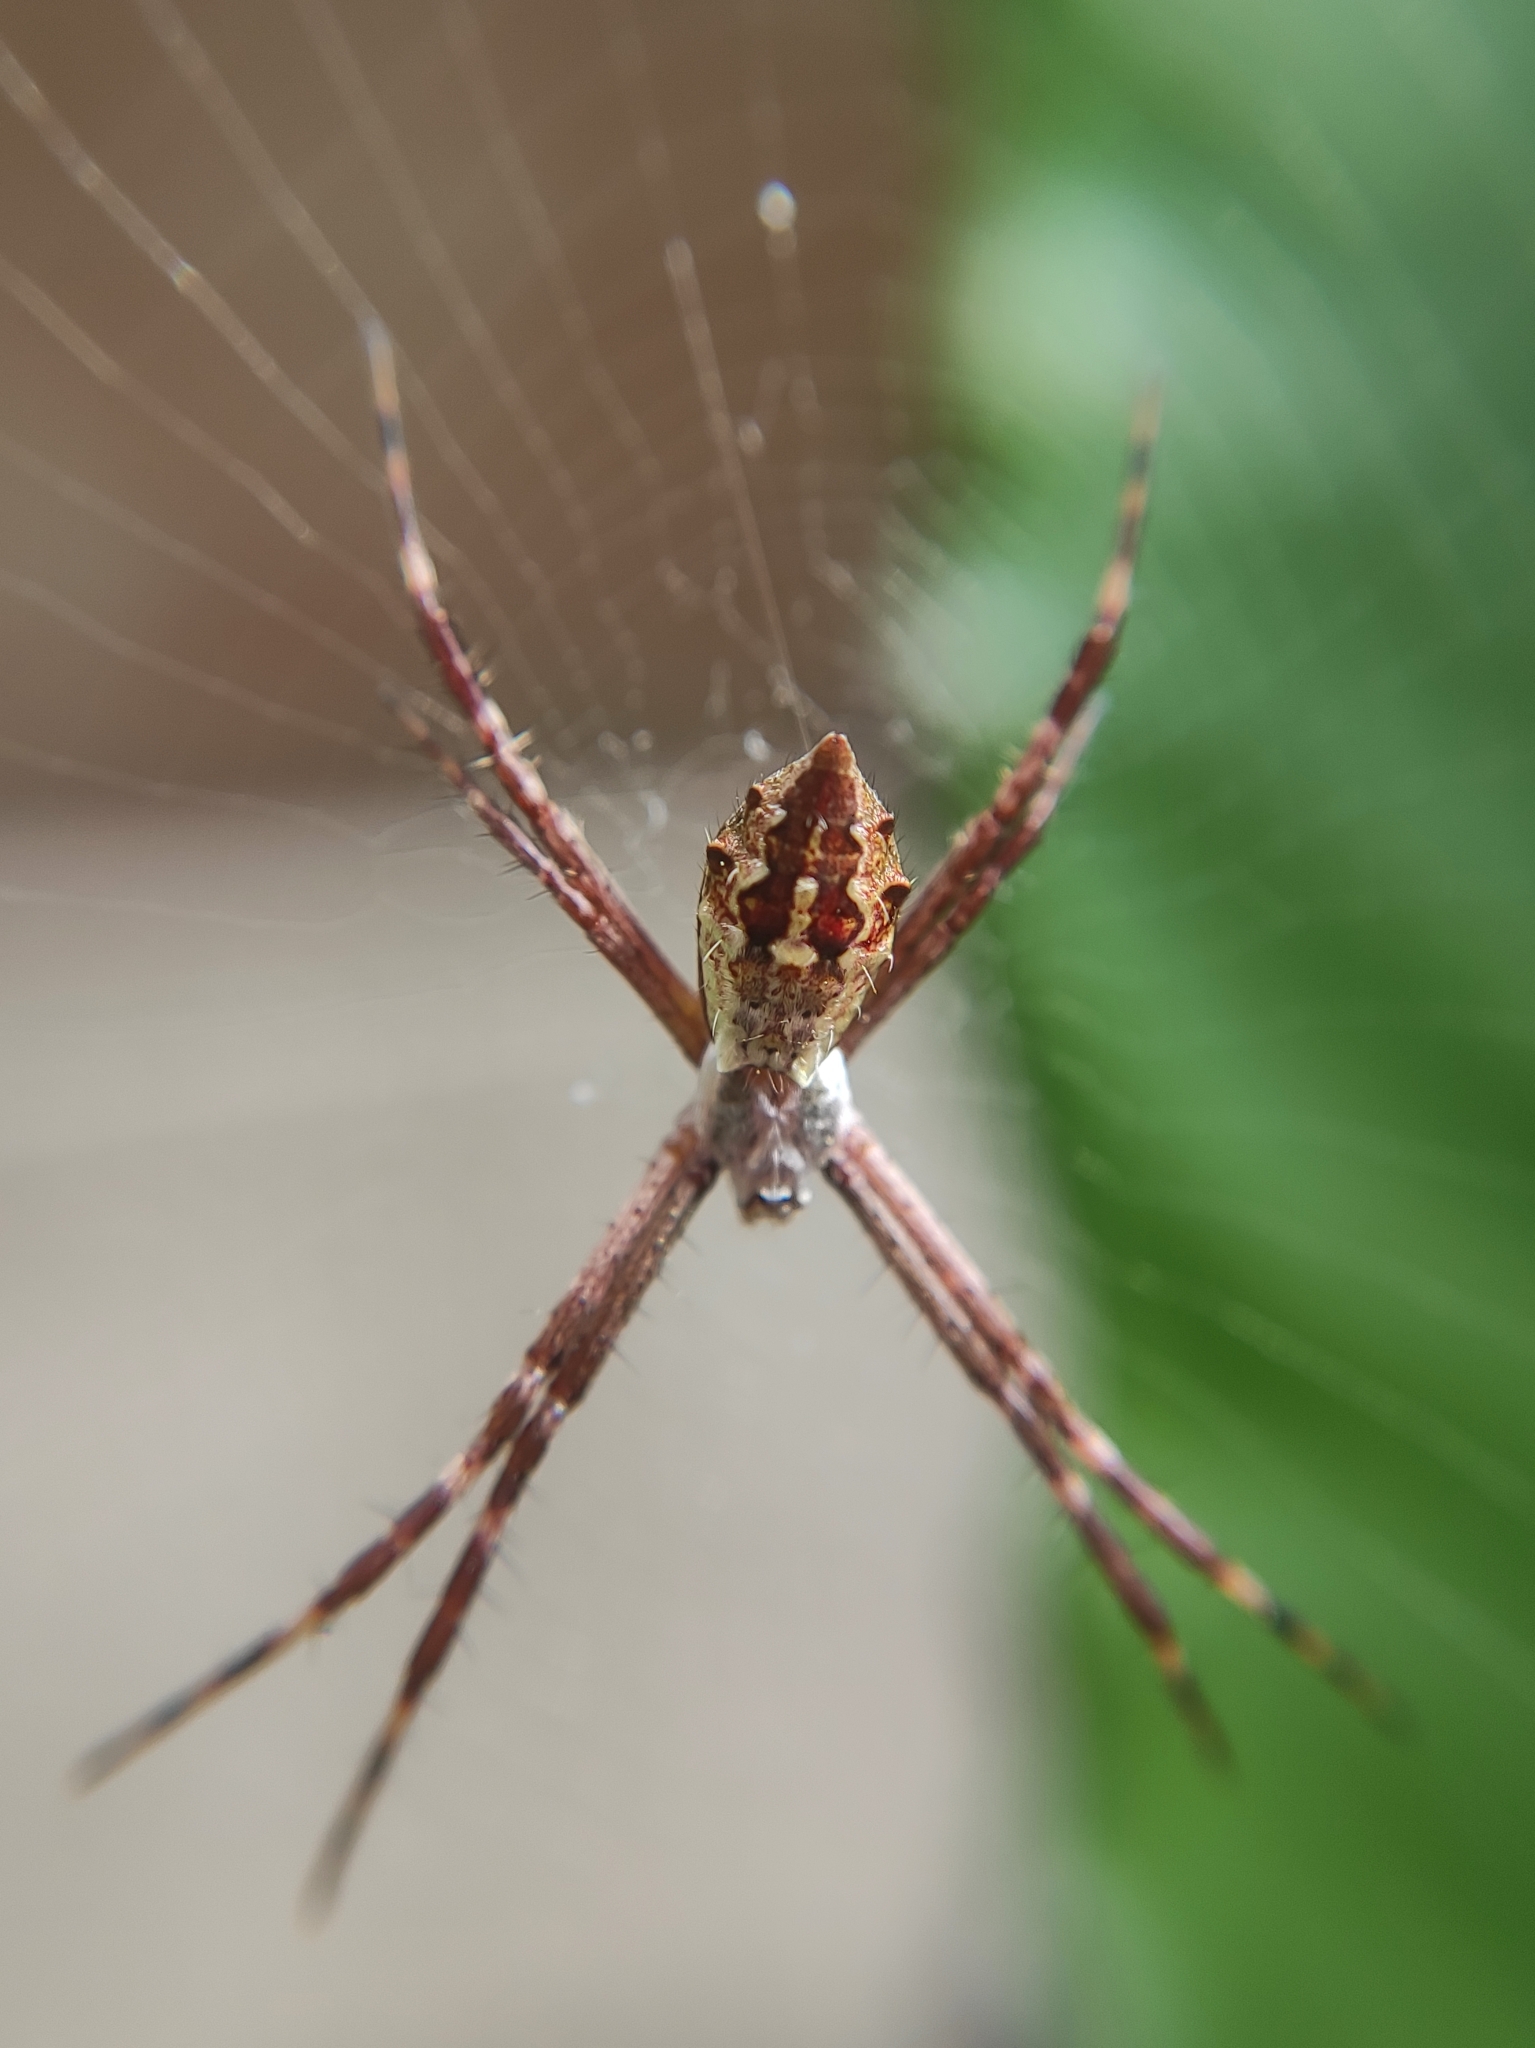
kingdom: Animalia
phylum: Arthropoda
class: Arachnida
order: Araneae
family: Araneidae
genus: Argiope
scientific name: Argiope argentata
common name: Orb weavers
